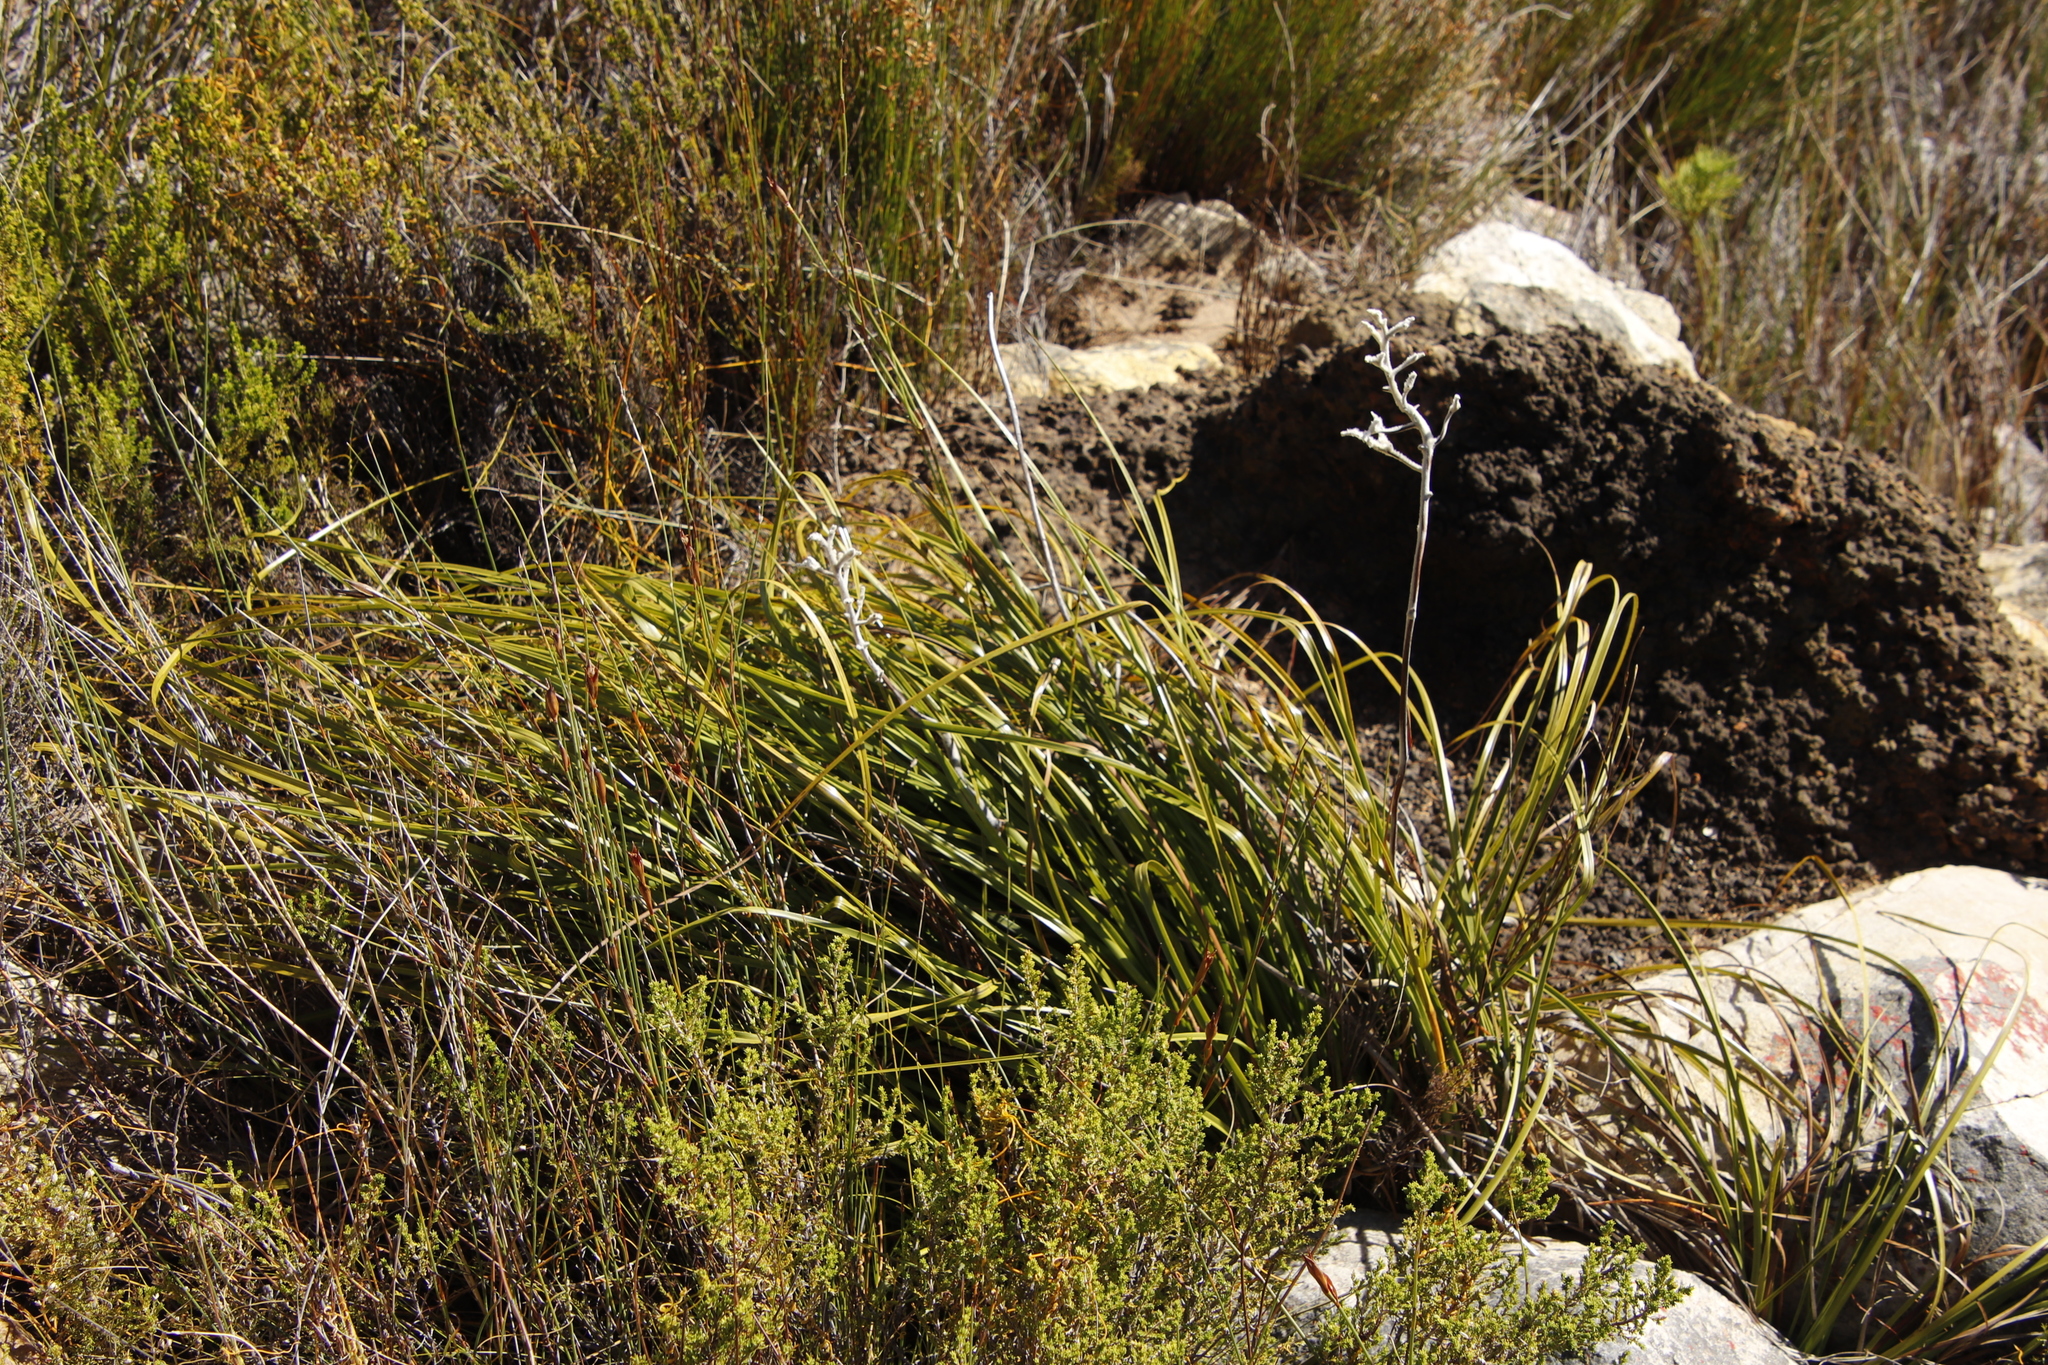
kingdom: Plantae
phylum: Tracheophyta
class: Liliopsida
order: Asparagales
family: Lanariaceae
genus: Lanaria
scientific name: Lanaria lanata
